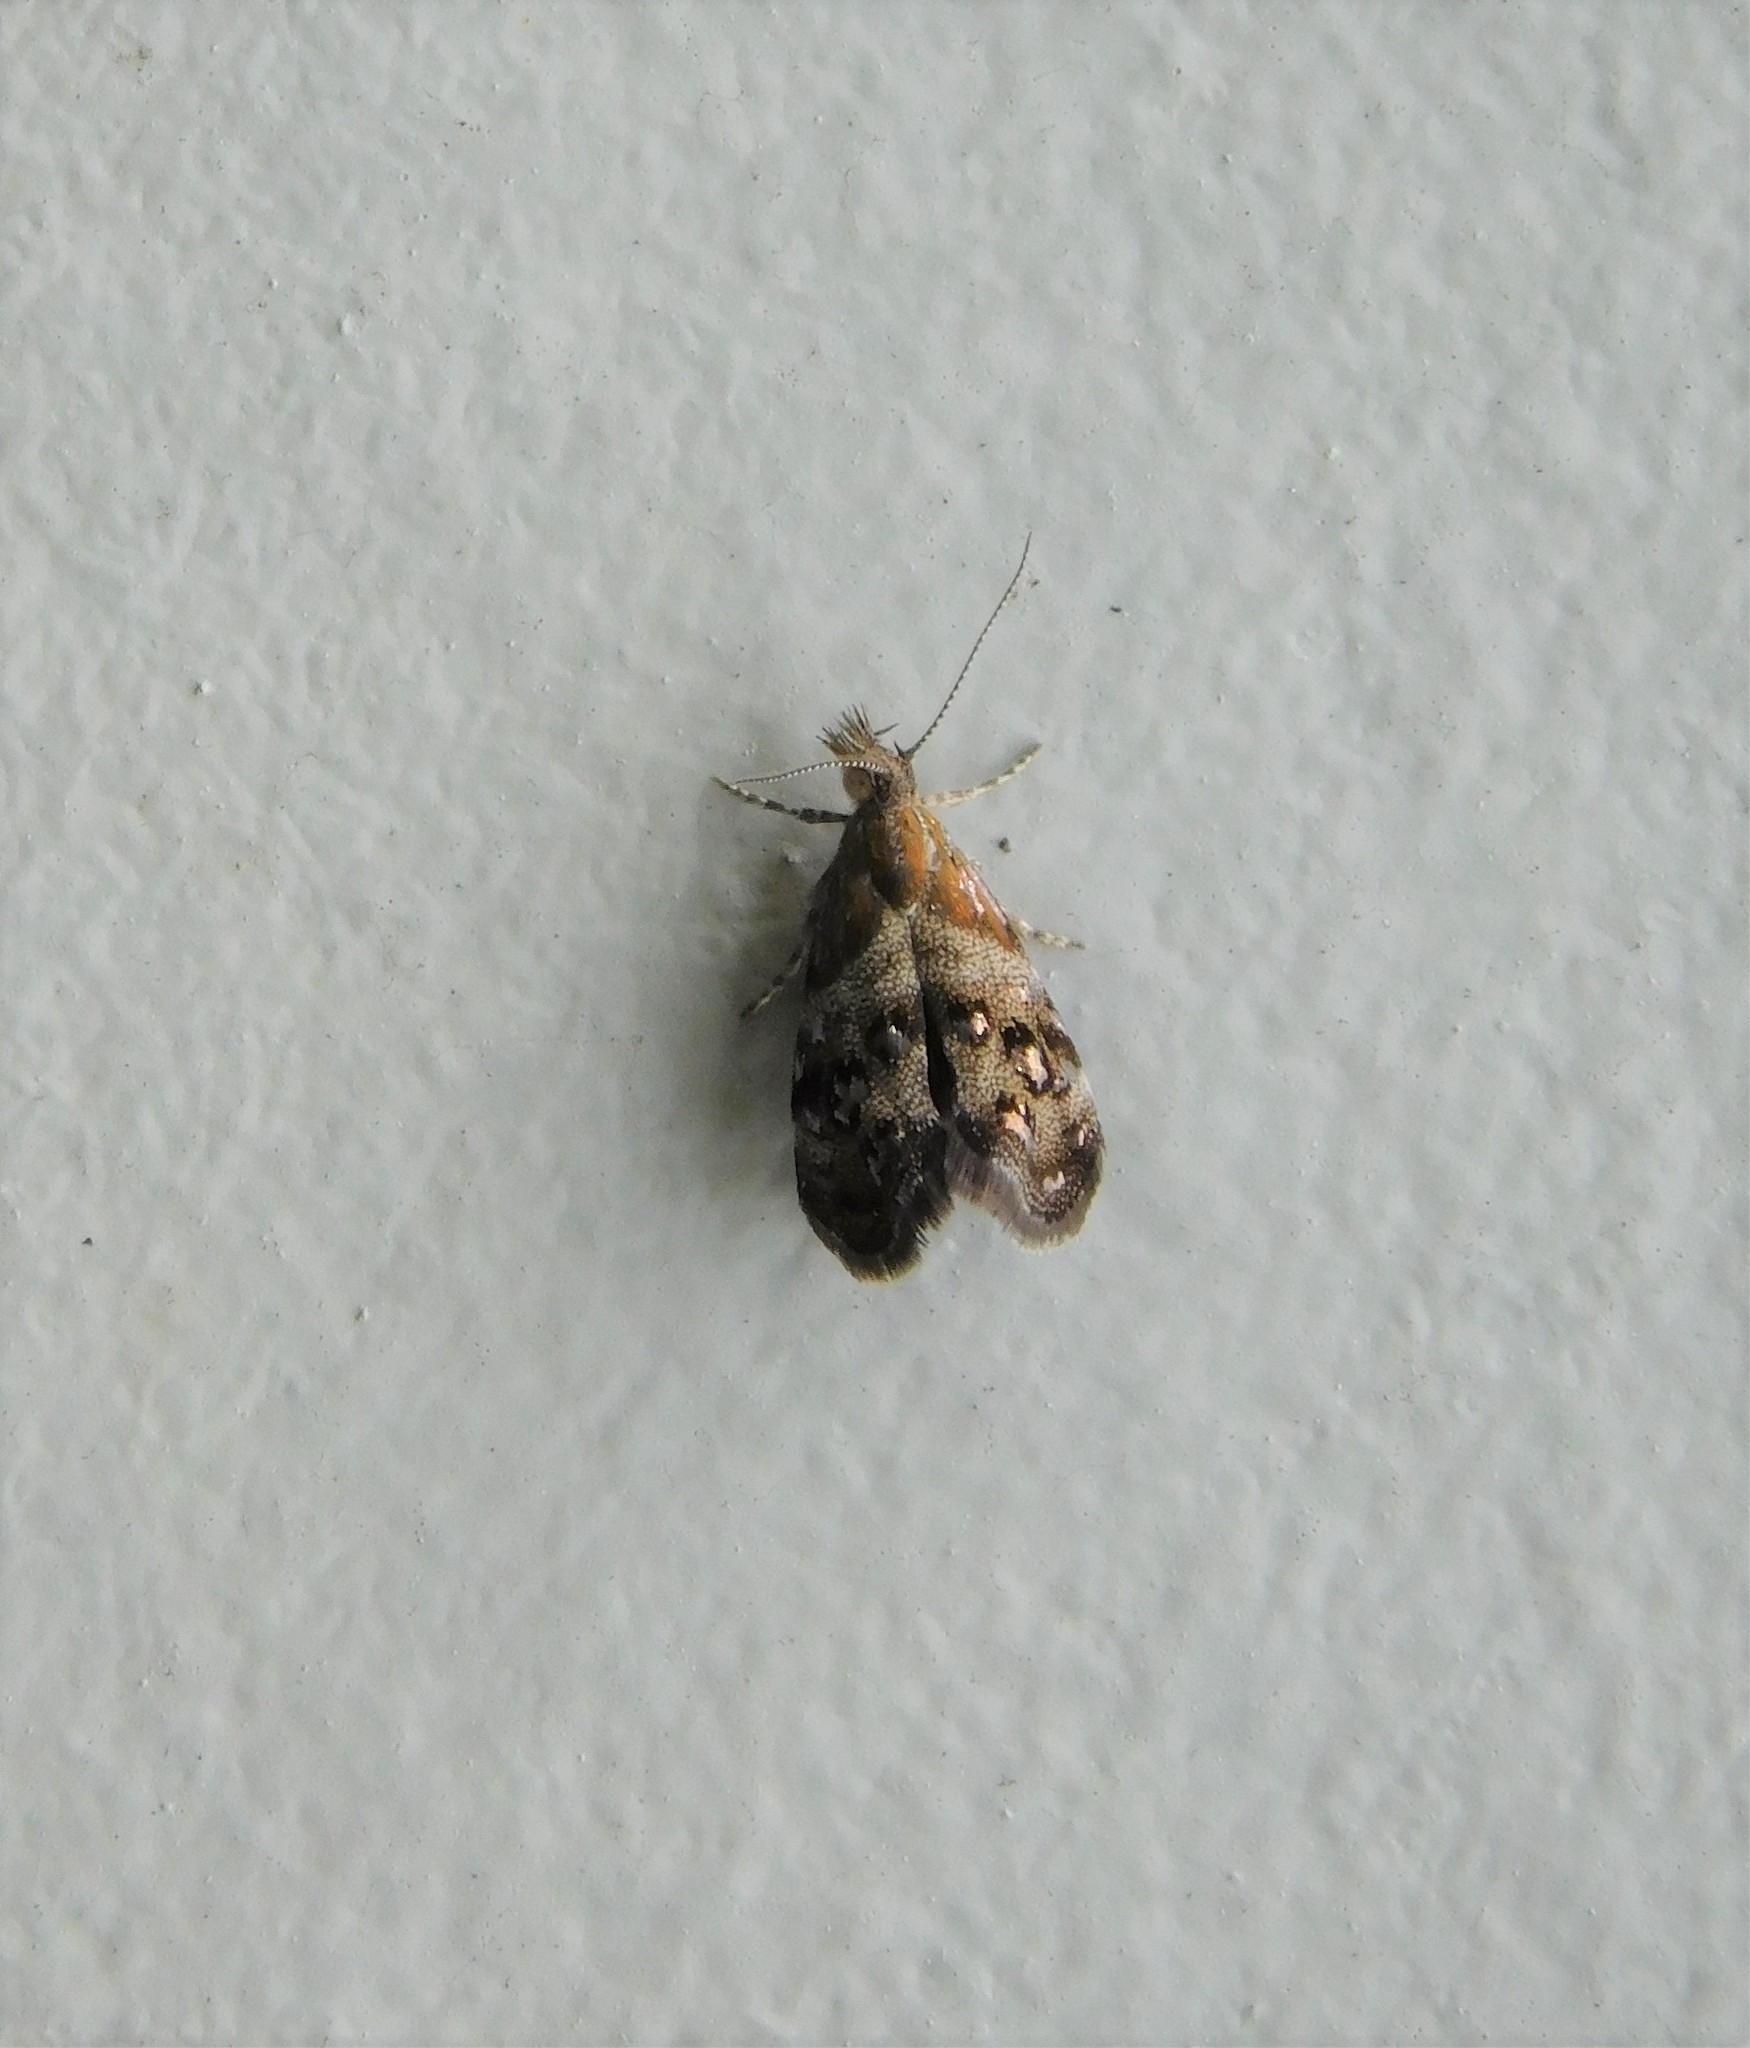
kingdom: Animalia
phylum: Arthropoda
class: Insecta
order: Lepidoptera
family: Choreutidae
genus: Tebenna
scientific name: Tebenna micalis
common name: Vagrant twitcher
